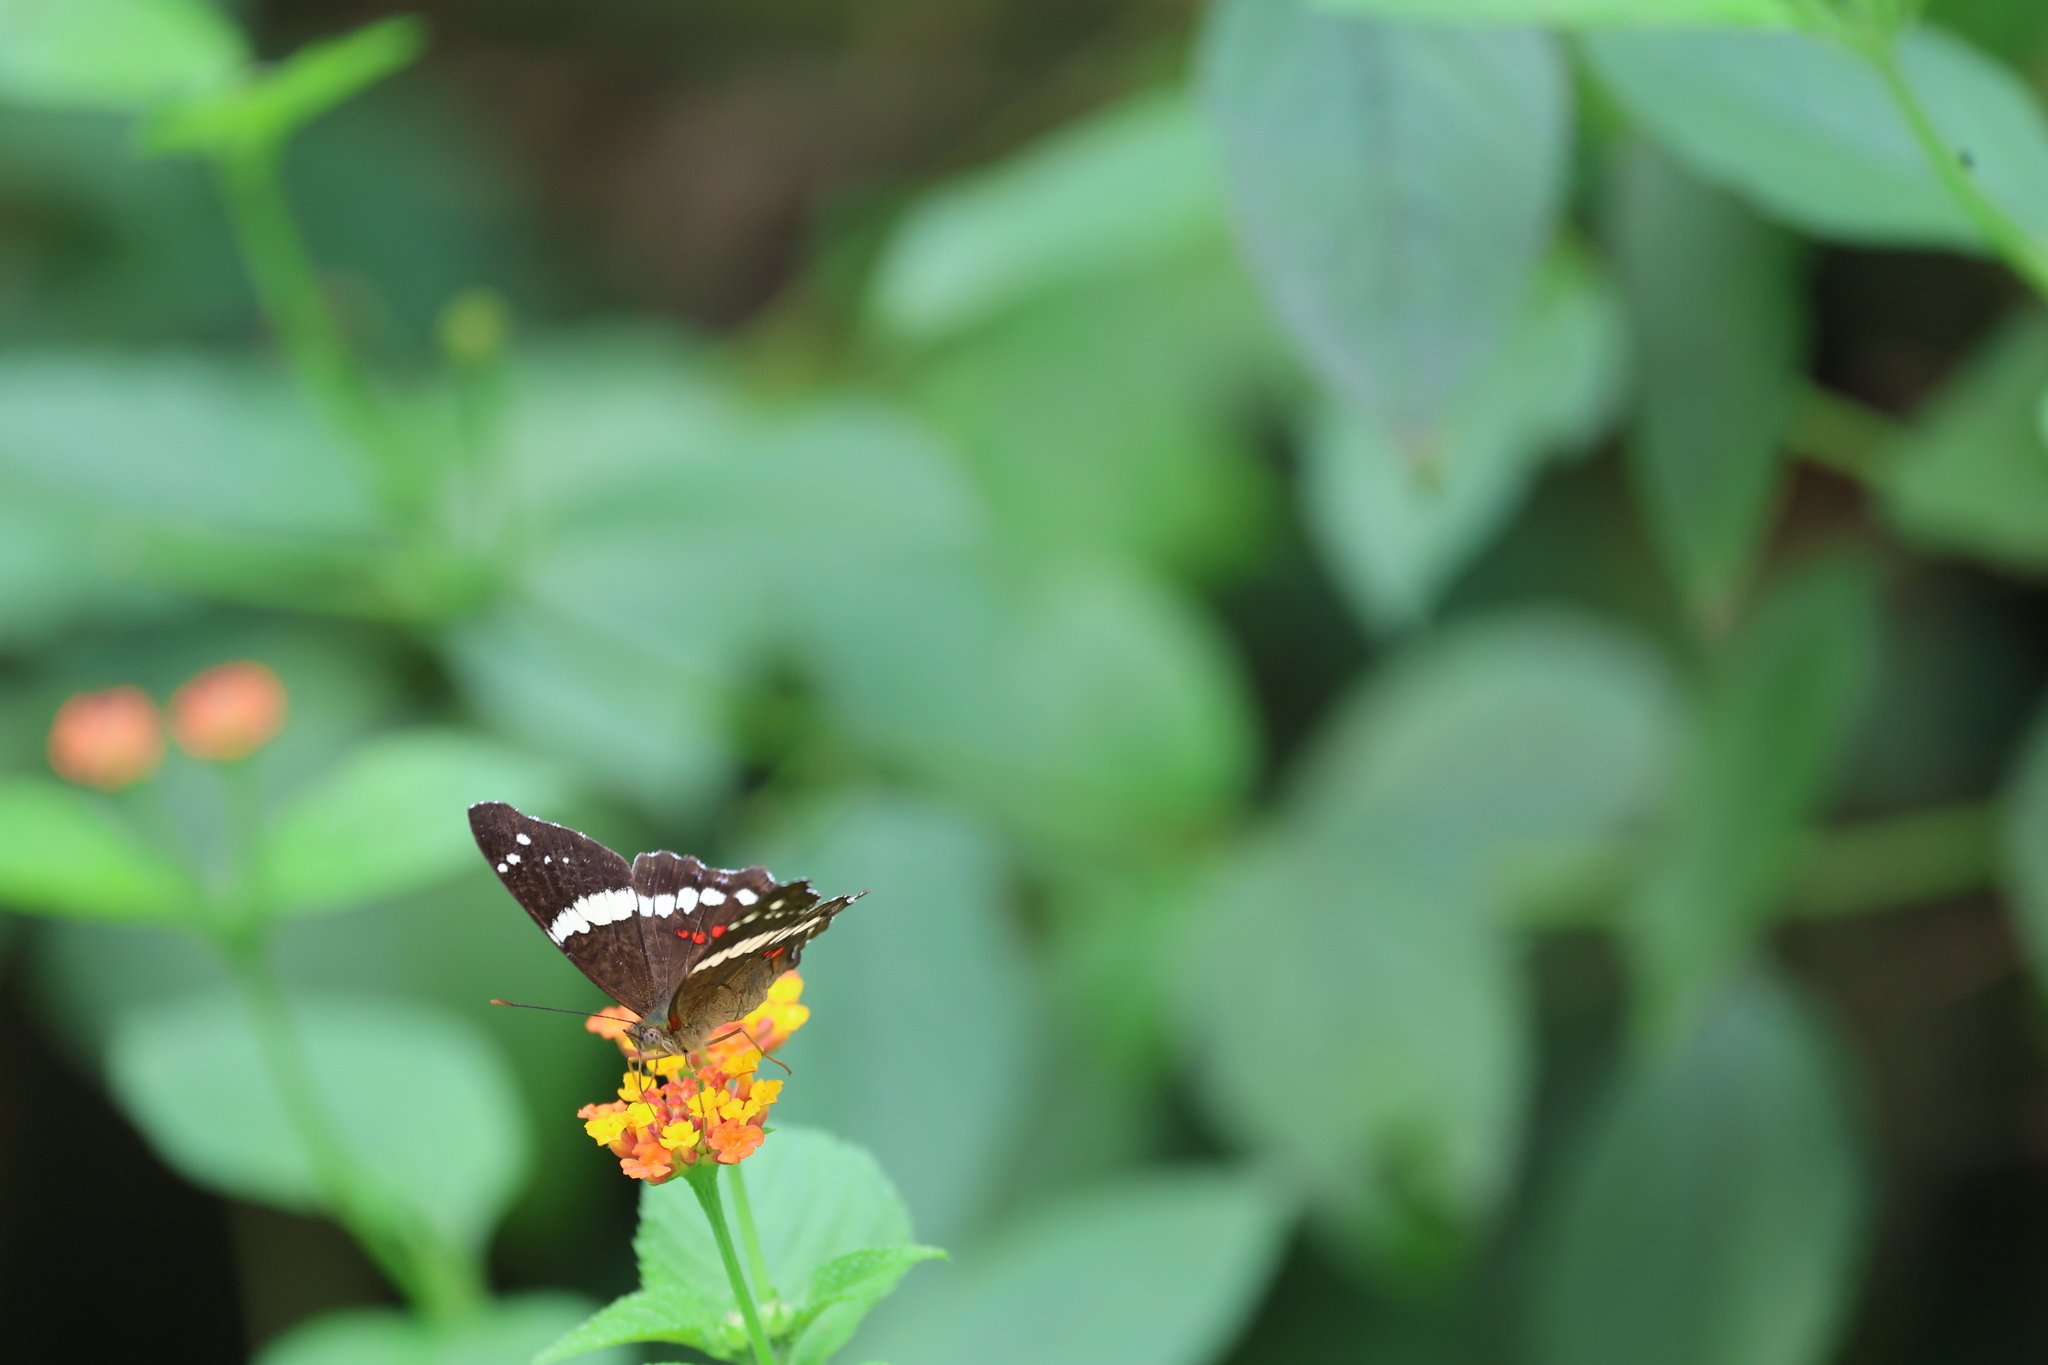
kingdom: Animalia
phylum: Arthropoda
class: Insecta
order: Lepidoptera
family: Nymphalidae
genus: Anartia
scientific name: Anartia fatima
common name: Banded peacock
